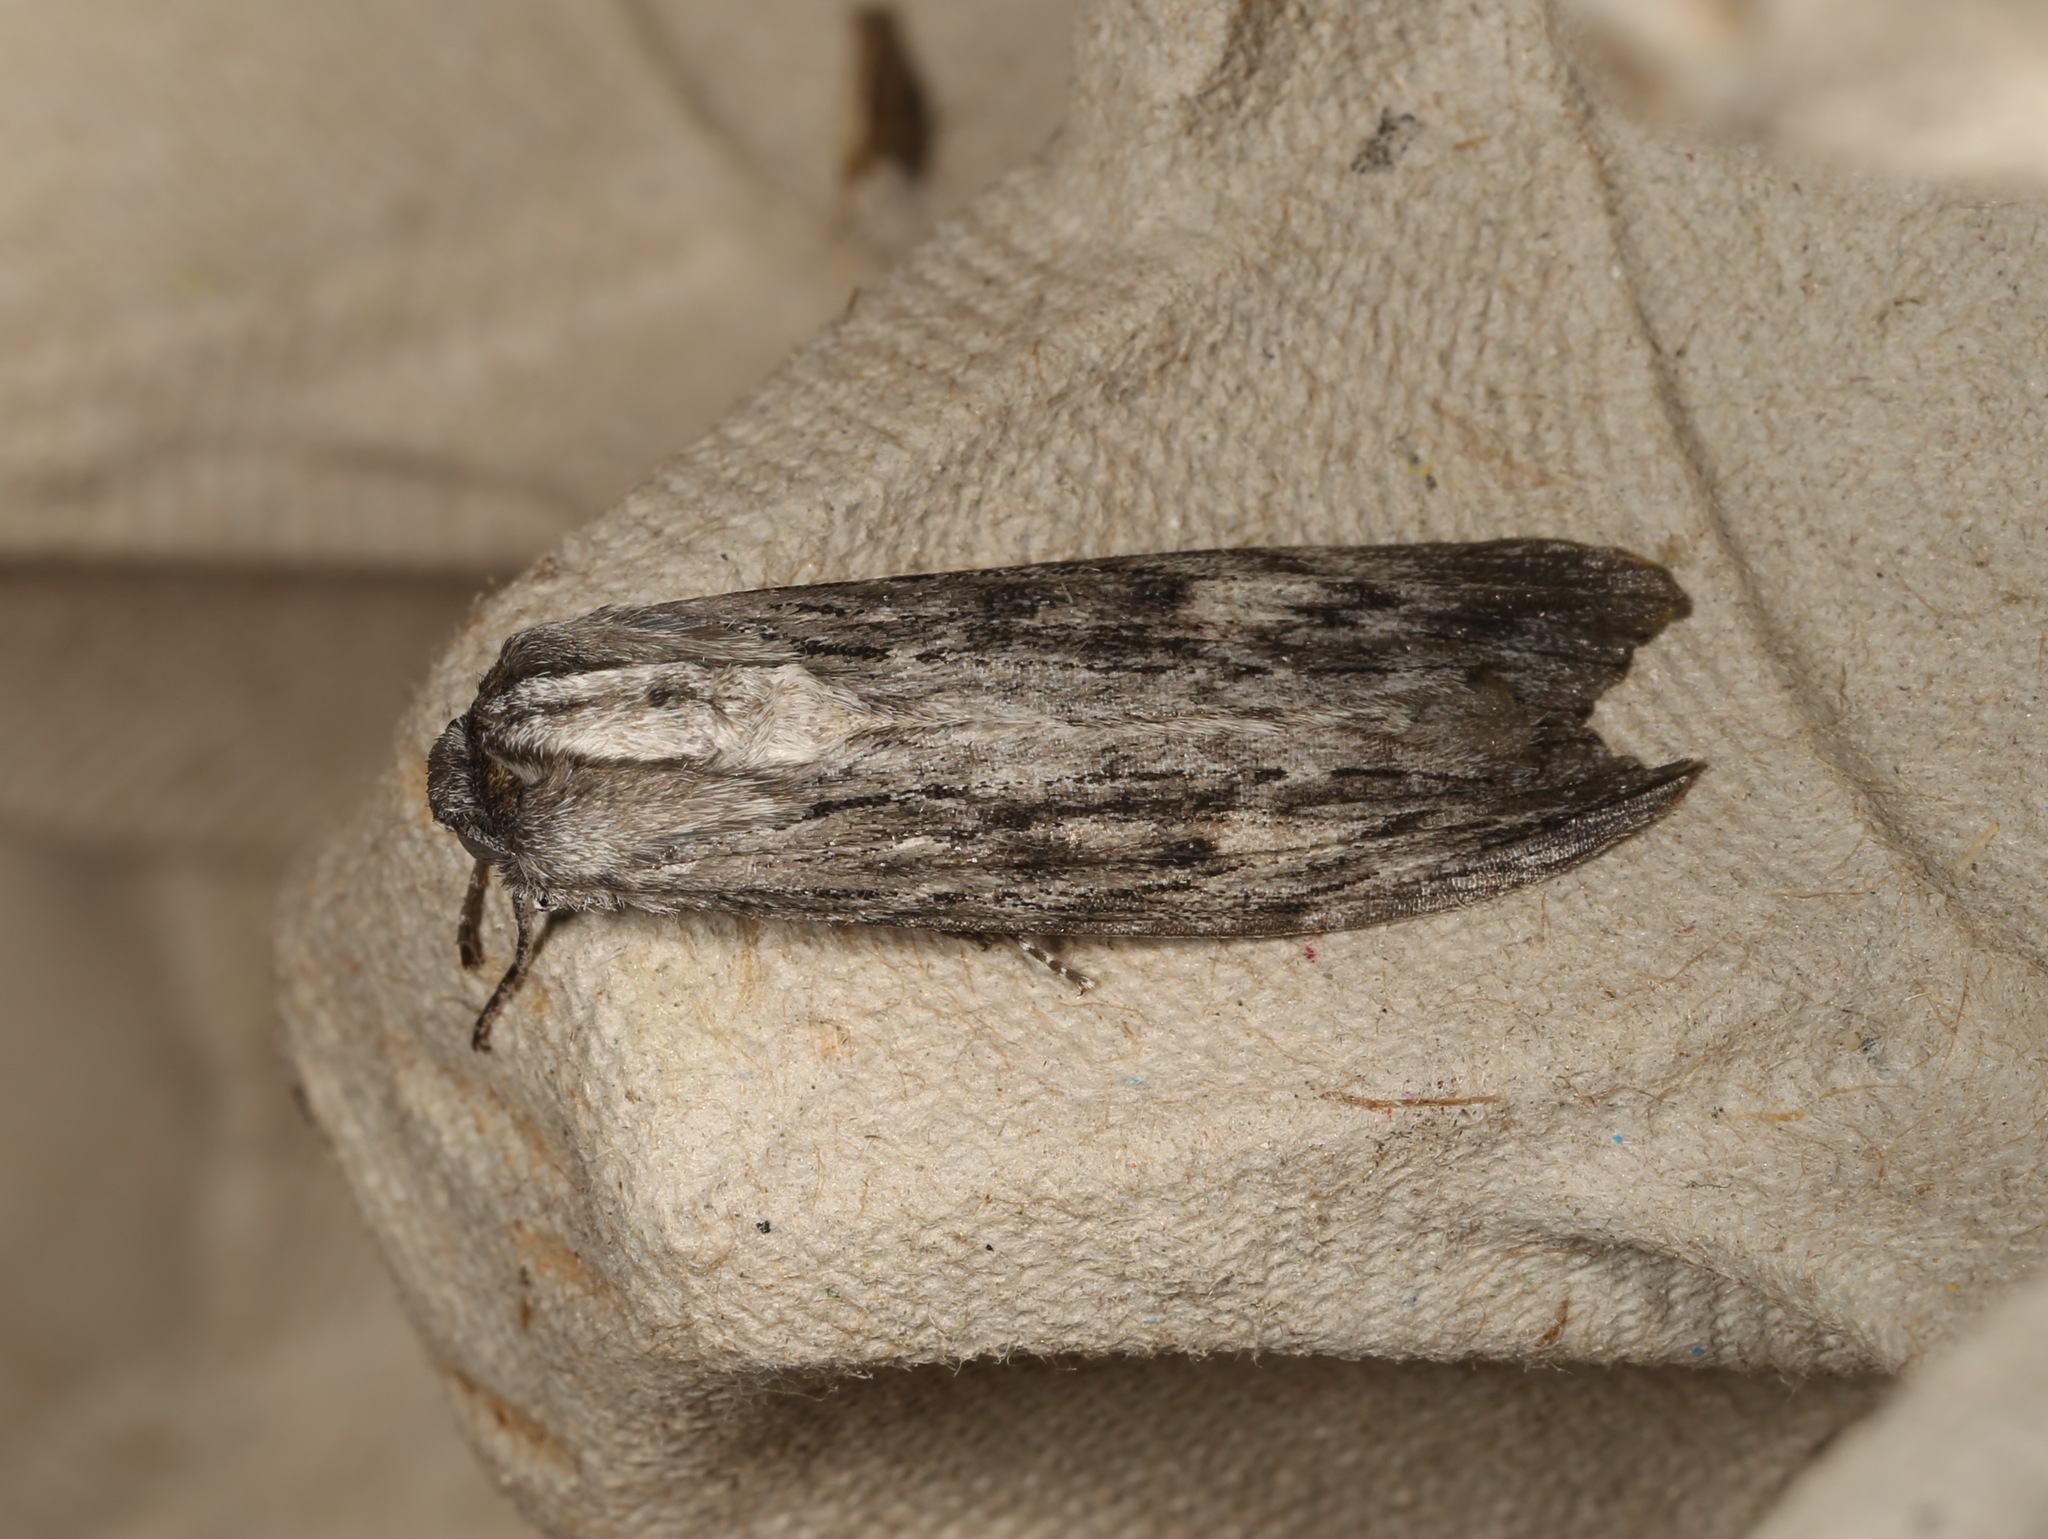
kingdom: Animalia
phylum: Arthropoda
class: Insecta
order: Lepidoptera
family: Geometridae
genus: Capusa
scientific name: Capusa senilis
